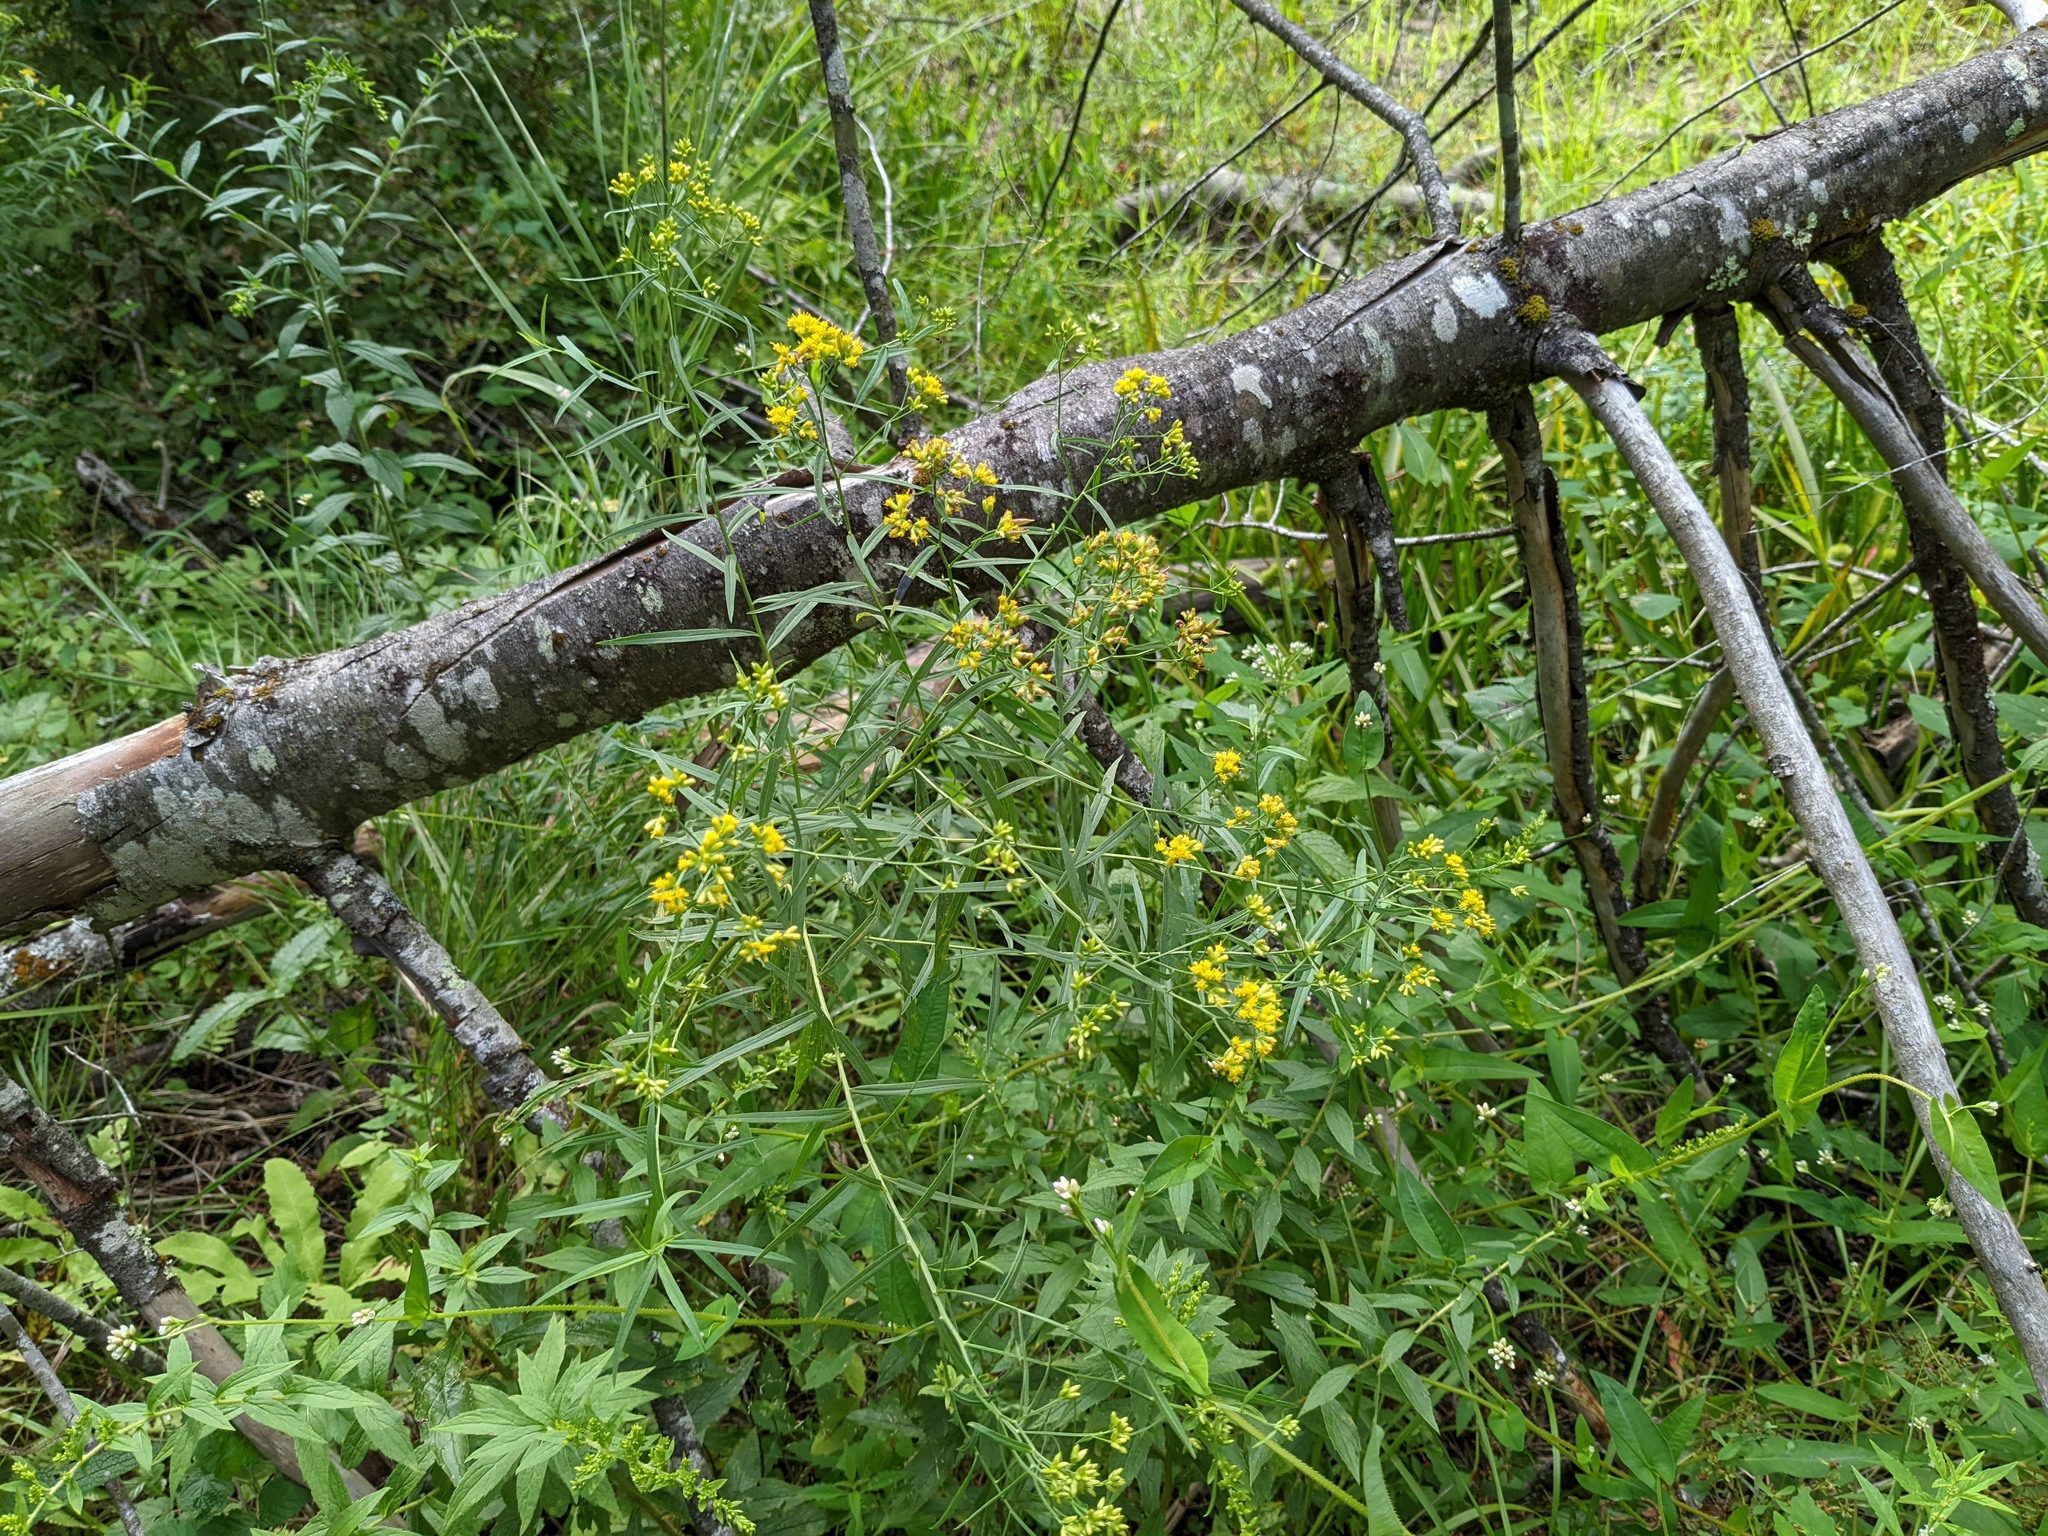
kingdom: Plantae
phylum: Tracheophyta
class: Magnoliopsida
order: Asterales
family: Asteraceae
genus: Euthamia
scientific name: Euthamia graminifolia
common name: Common goldentop
